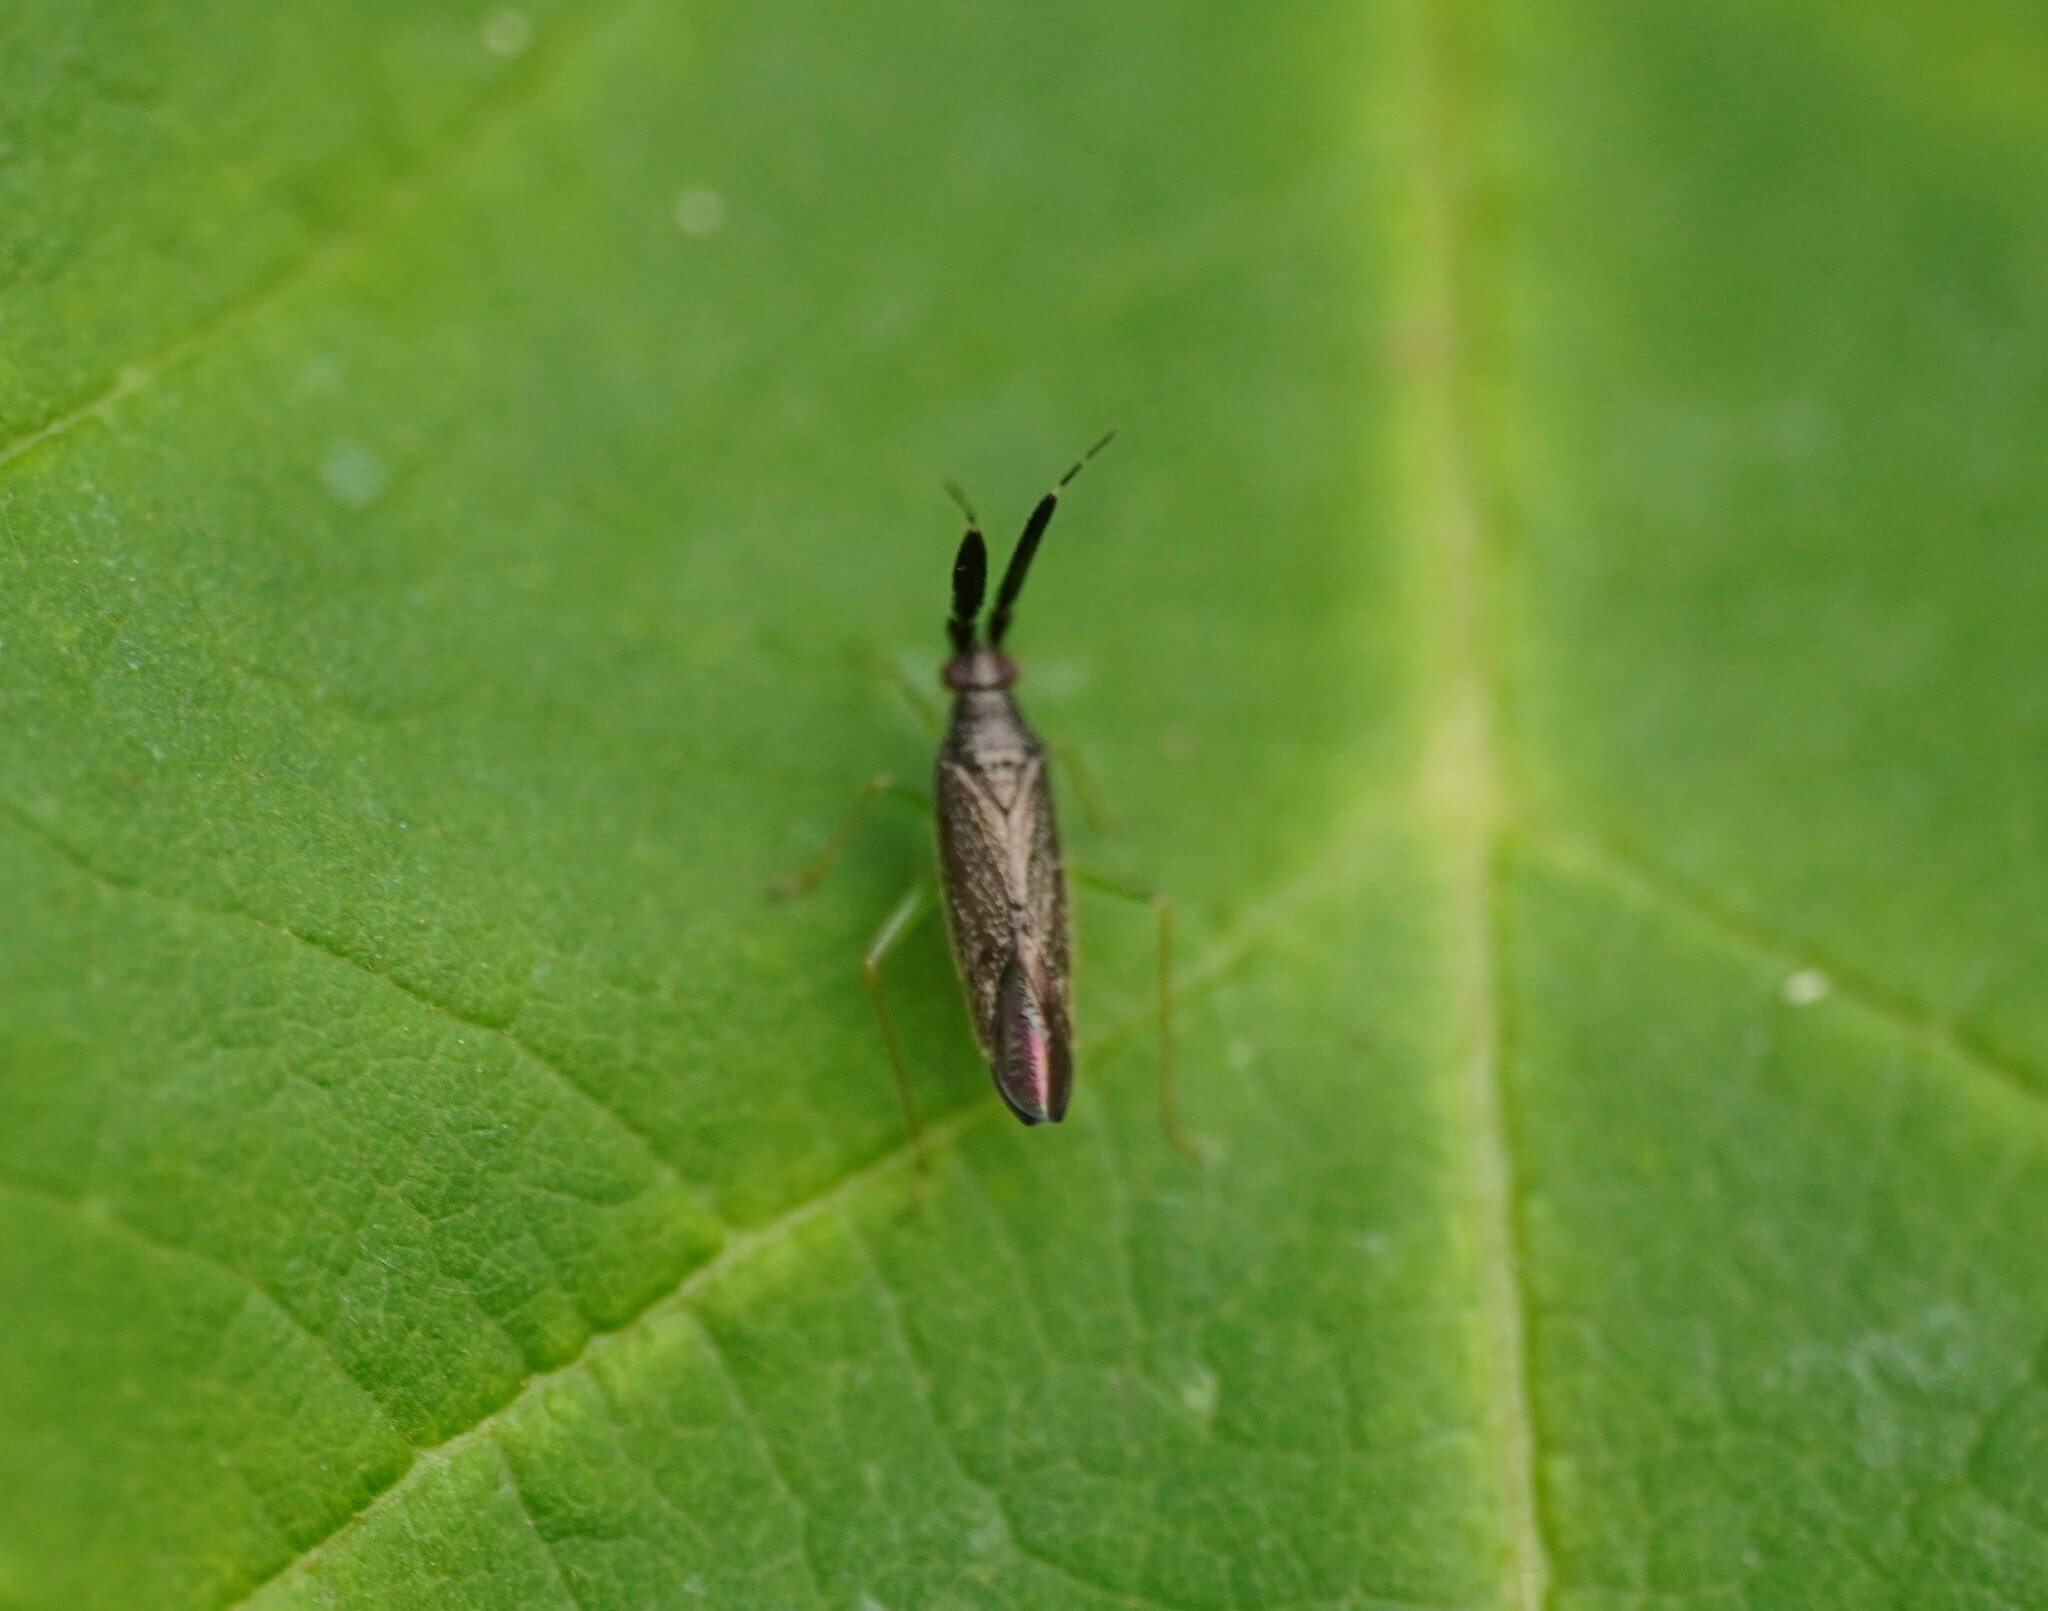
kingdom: Animalia
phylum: Arthropoda
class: Insecta
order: Hemiptera
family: Miridae
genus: Heterotoma
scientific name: Heterotoma planicornis
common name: Plant bug
